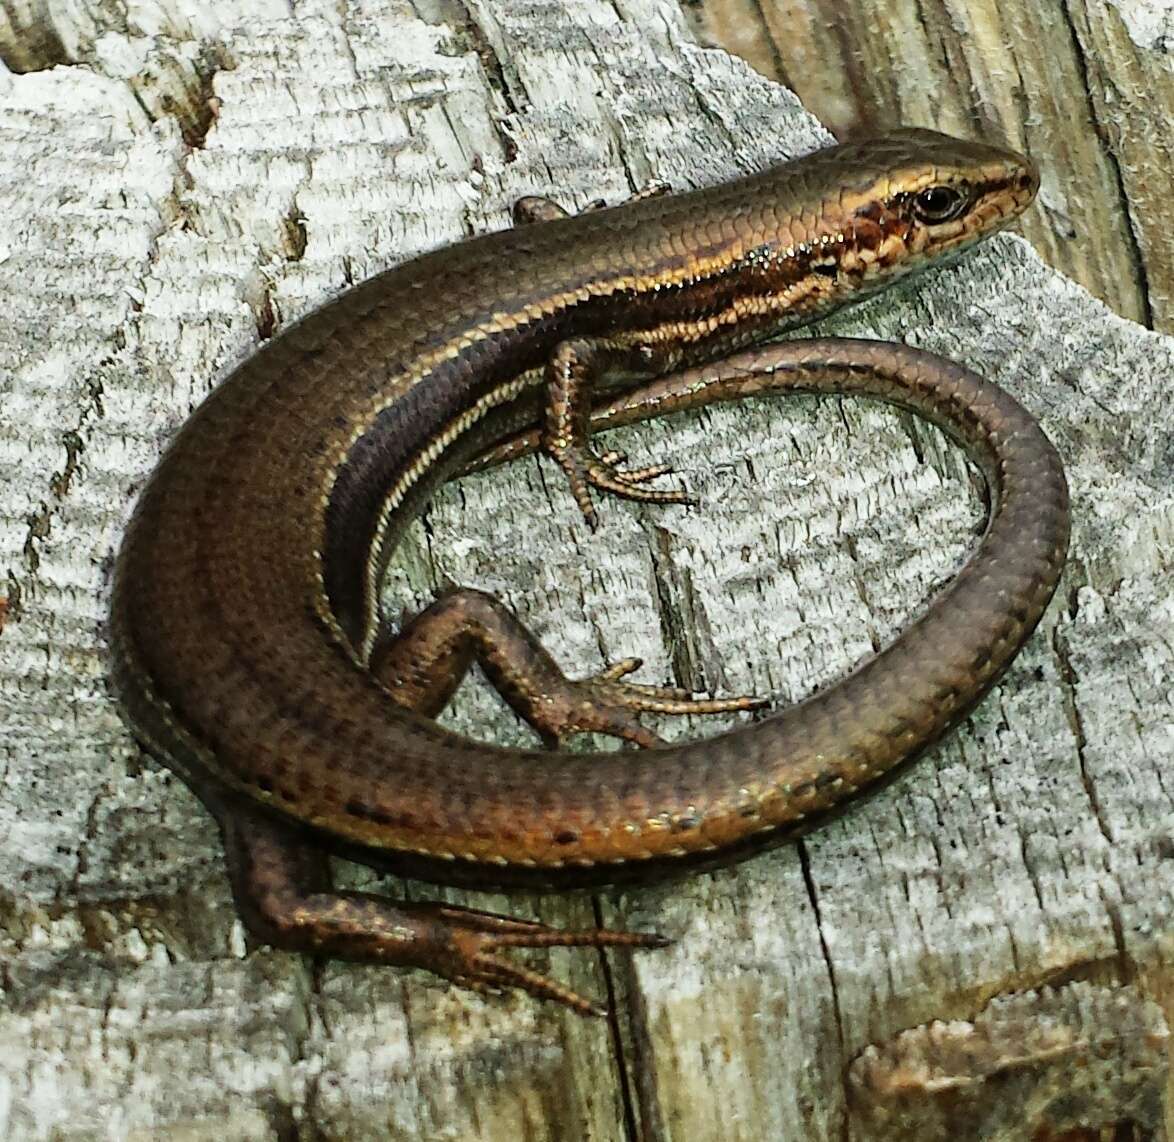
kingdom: Animalia
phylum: Chordata
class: Squamata
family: Scincidae
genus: Pseudemoia
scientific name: Pseudemoia entrecasteauxii
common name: Entrecasteaux's skink
